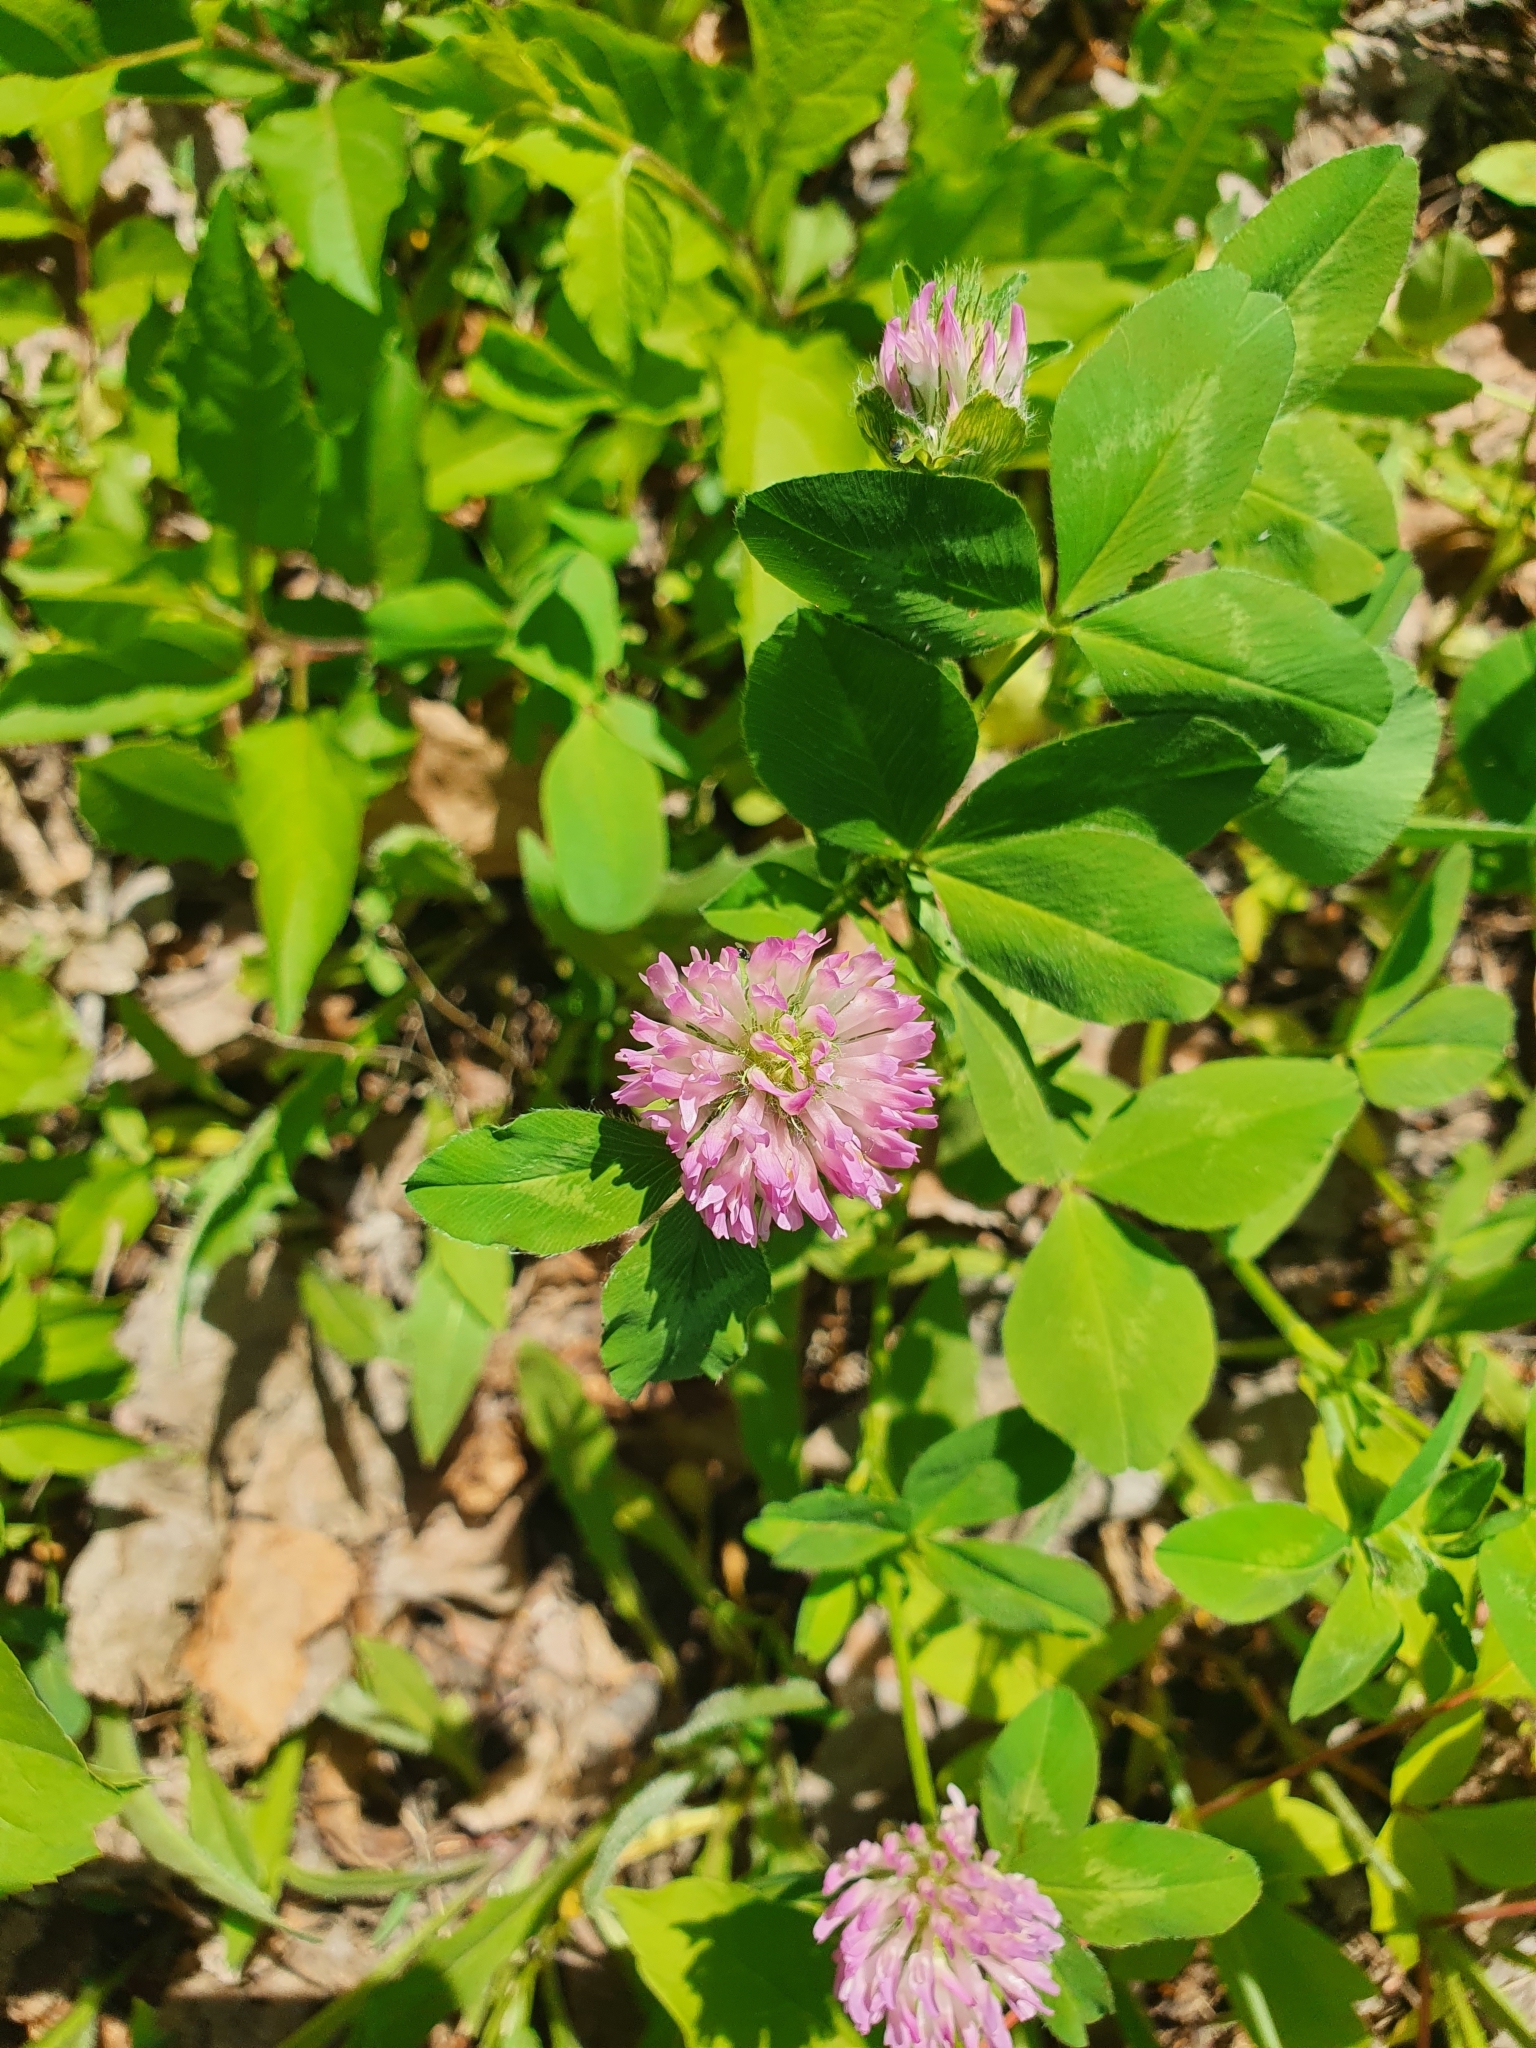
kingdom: Plantae
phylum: Tracheophyta
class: Magnoliopsida
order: Fabales
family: Fabaceae
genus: Trifolium
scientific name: Trifolium pratense
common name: Red clover
